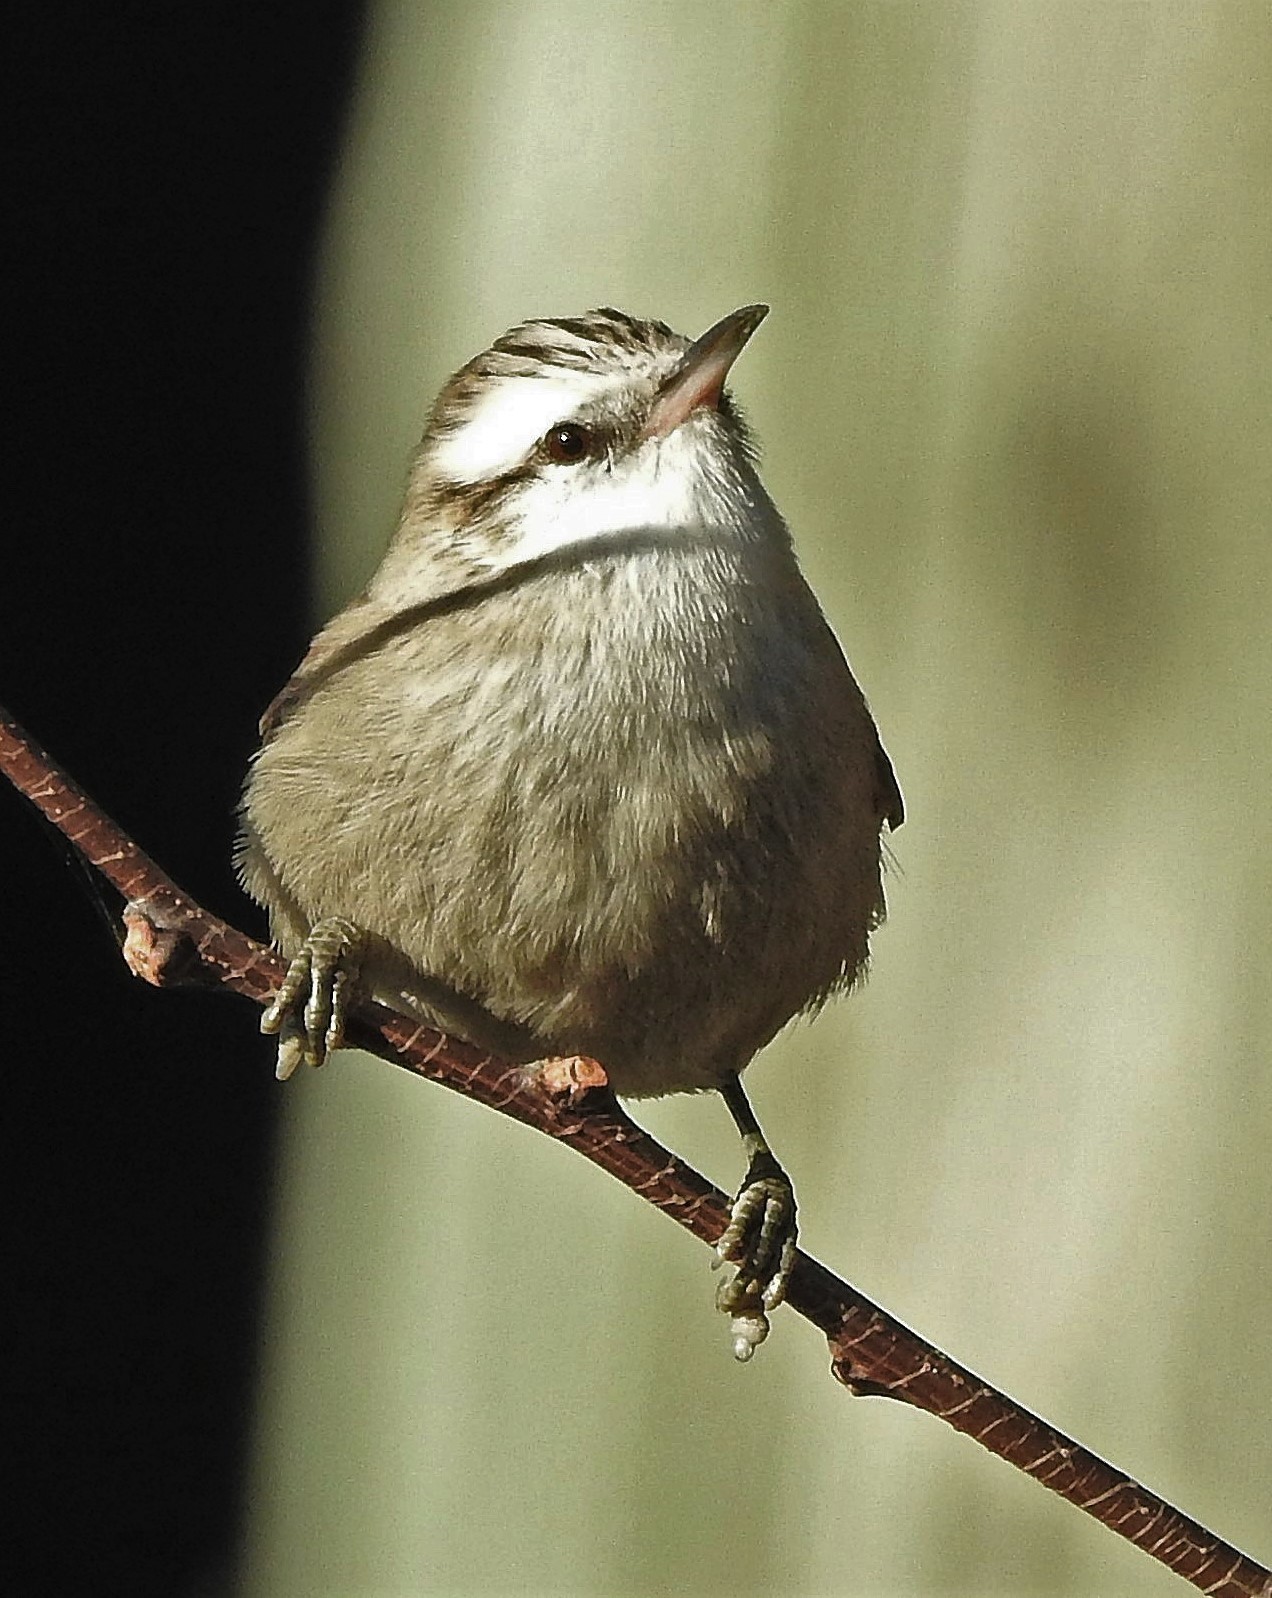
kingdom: Animalia
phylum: Chordata
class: Aves
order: Passeriformes
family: Furnariidae
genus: Cranioleuca
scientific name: Cranioleuca pyrrhophia
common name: Stripe-crowned spinetail
